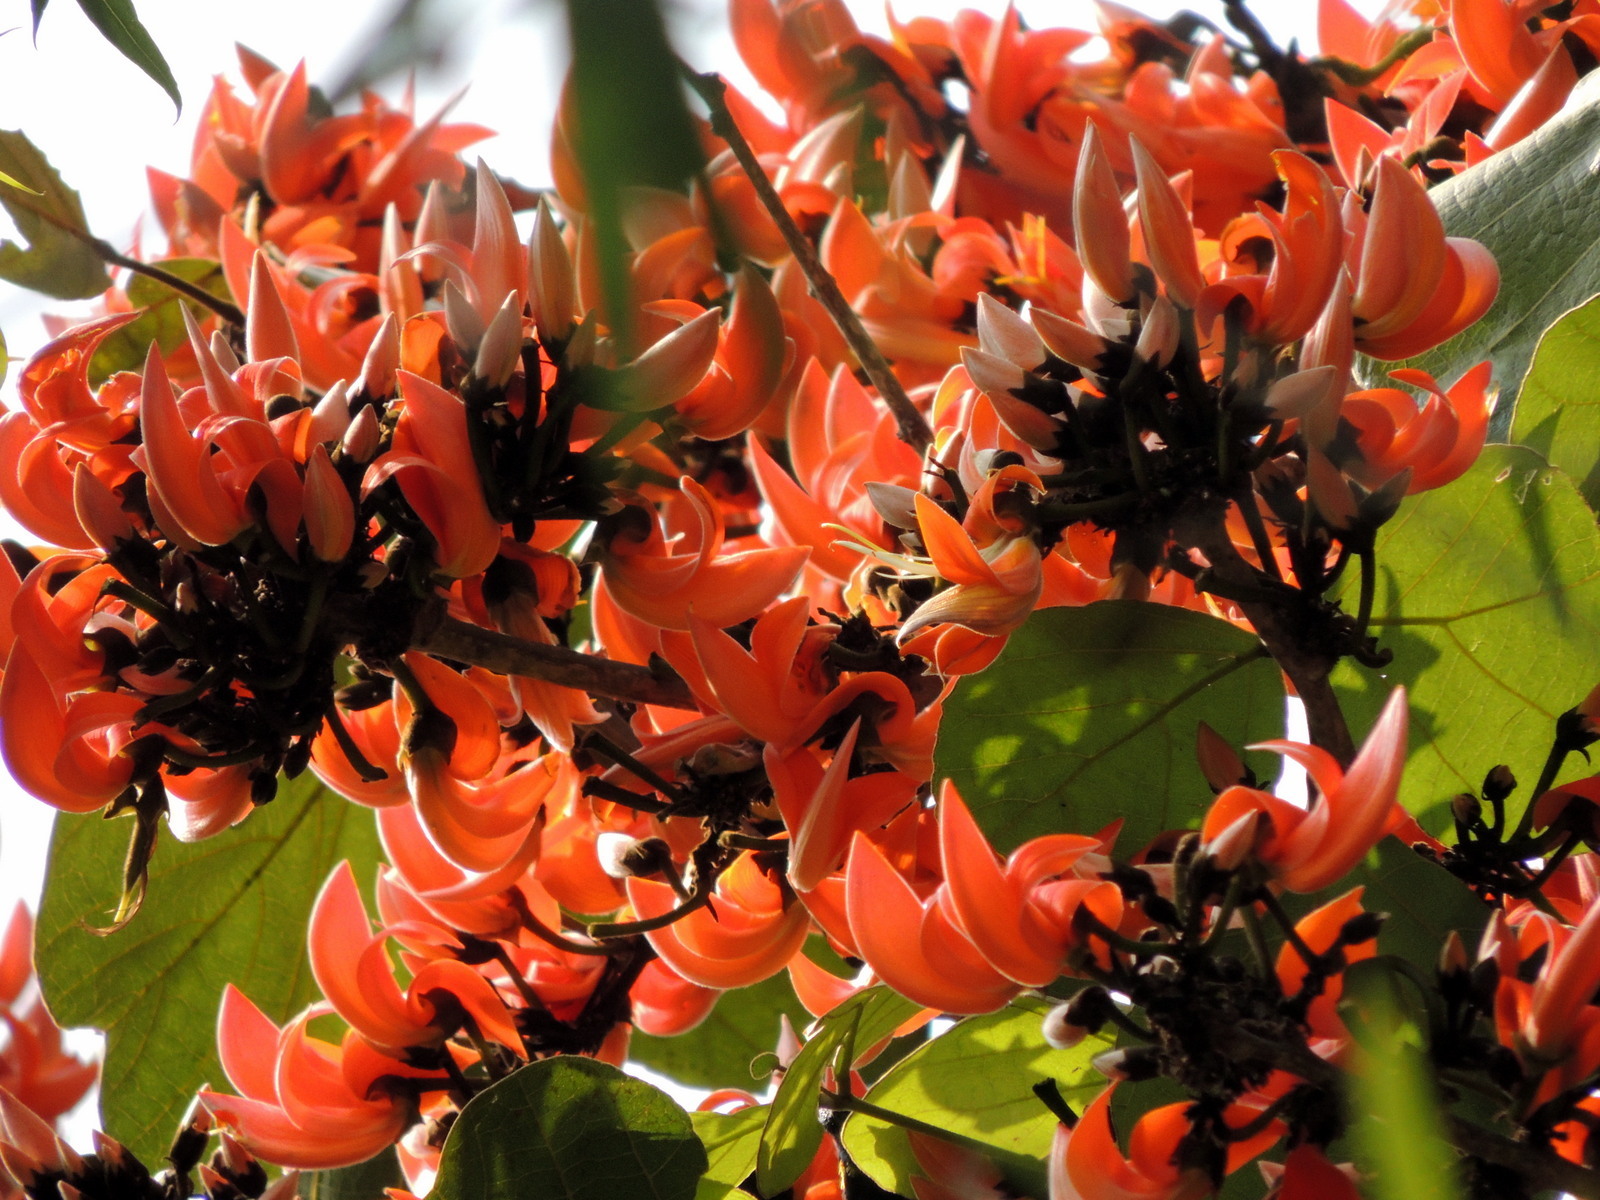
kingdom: Plantae
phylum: Tracheophyta
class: Magnoliopsida
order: Fabales
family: Fabaceae
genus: Butea
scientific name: Butea monosperma
